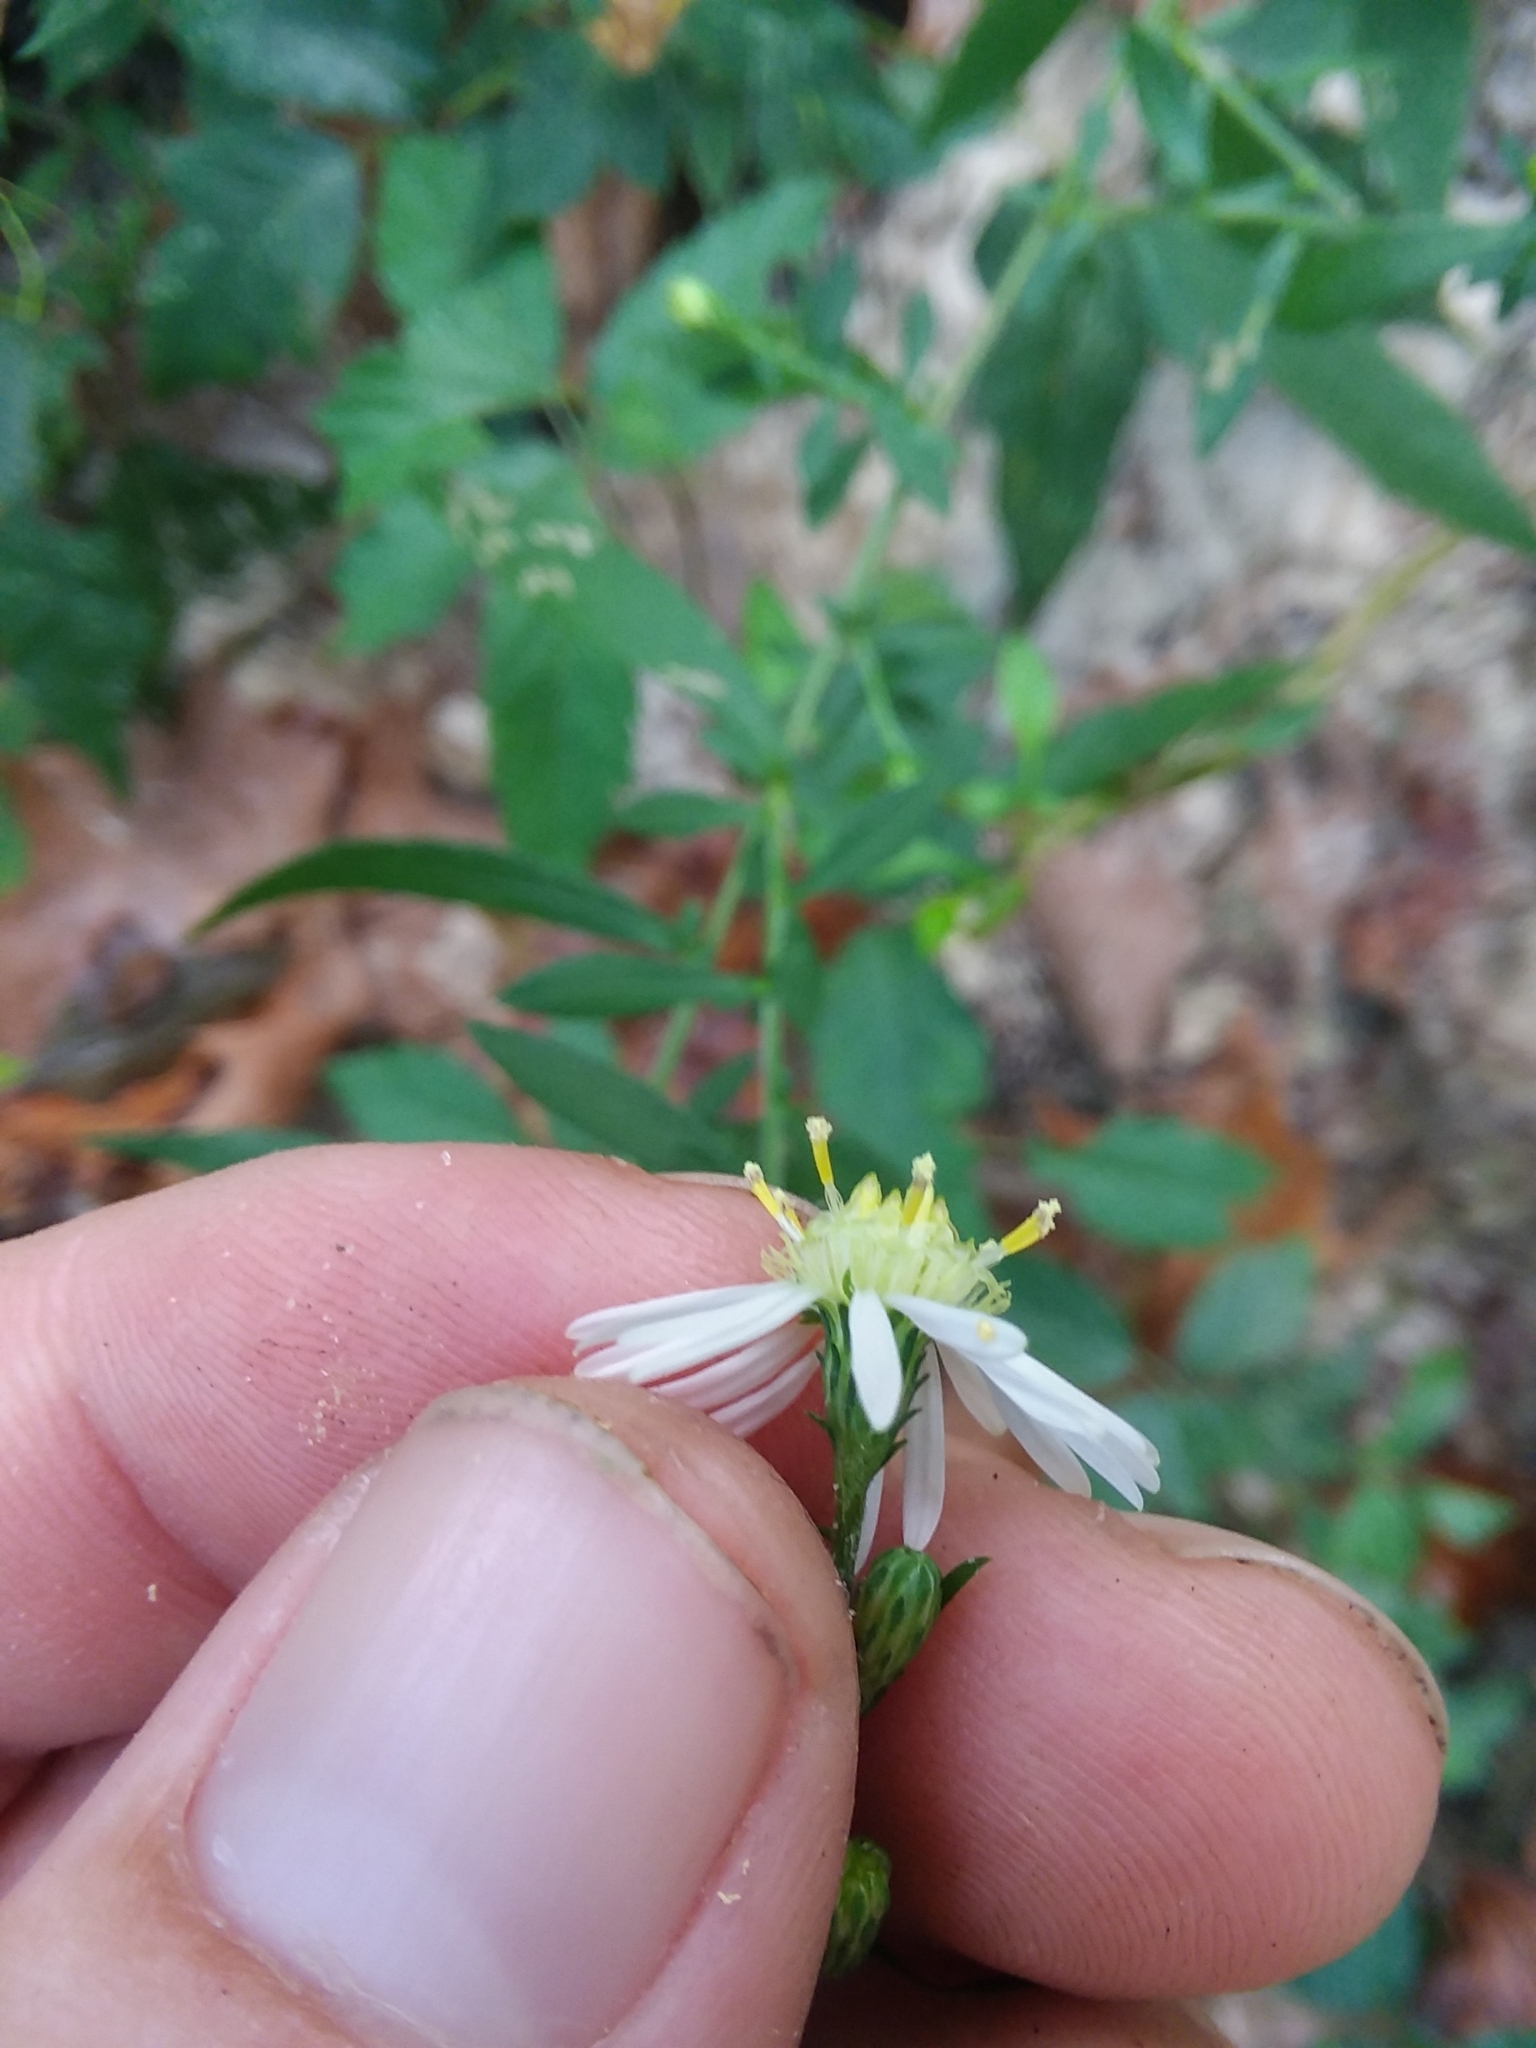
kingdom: Plantae
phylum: Tracheophyta
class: Magnoliopsida
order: Asterales
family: Asteraceae
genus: Symphyotrichum
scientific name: Symphyotrichum lateriflorum
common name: Calico aster
